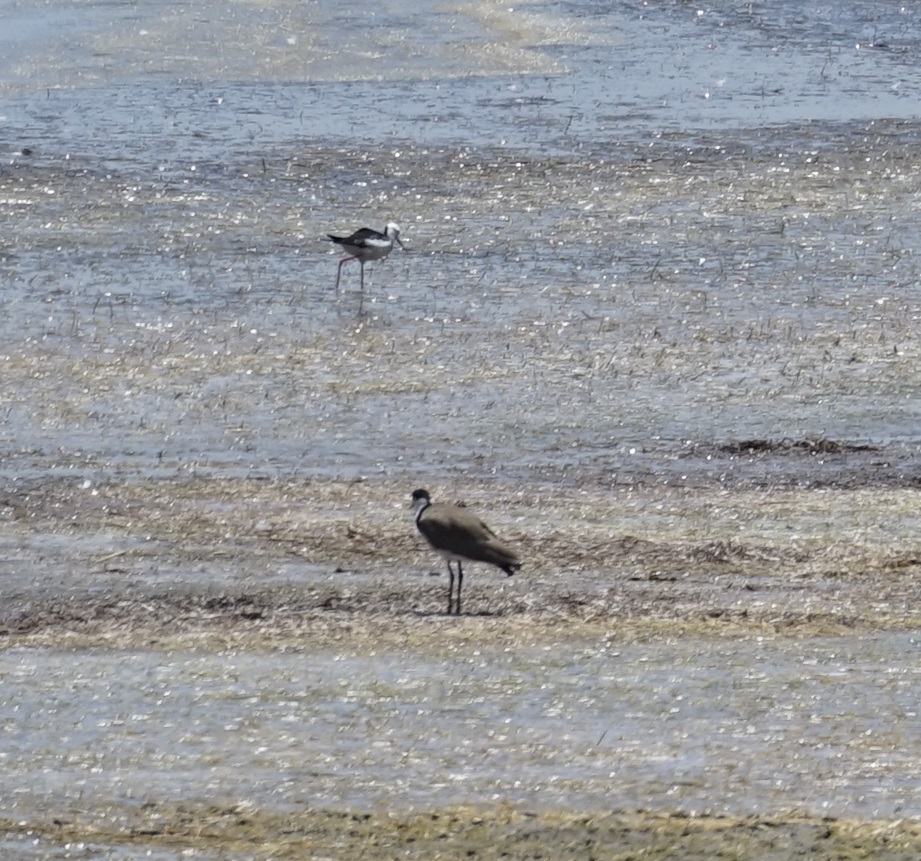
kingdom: Animalia
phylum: Chordata
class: Aves
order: Charadriiformes
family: Recurvirostridae
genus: Himantopus
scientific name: Himantopus leucocephalus
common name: White-headed stilt
